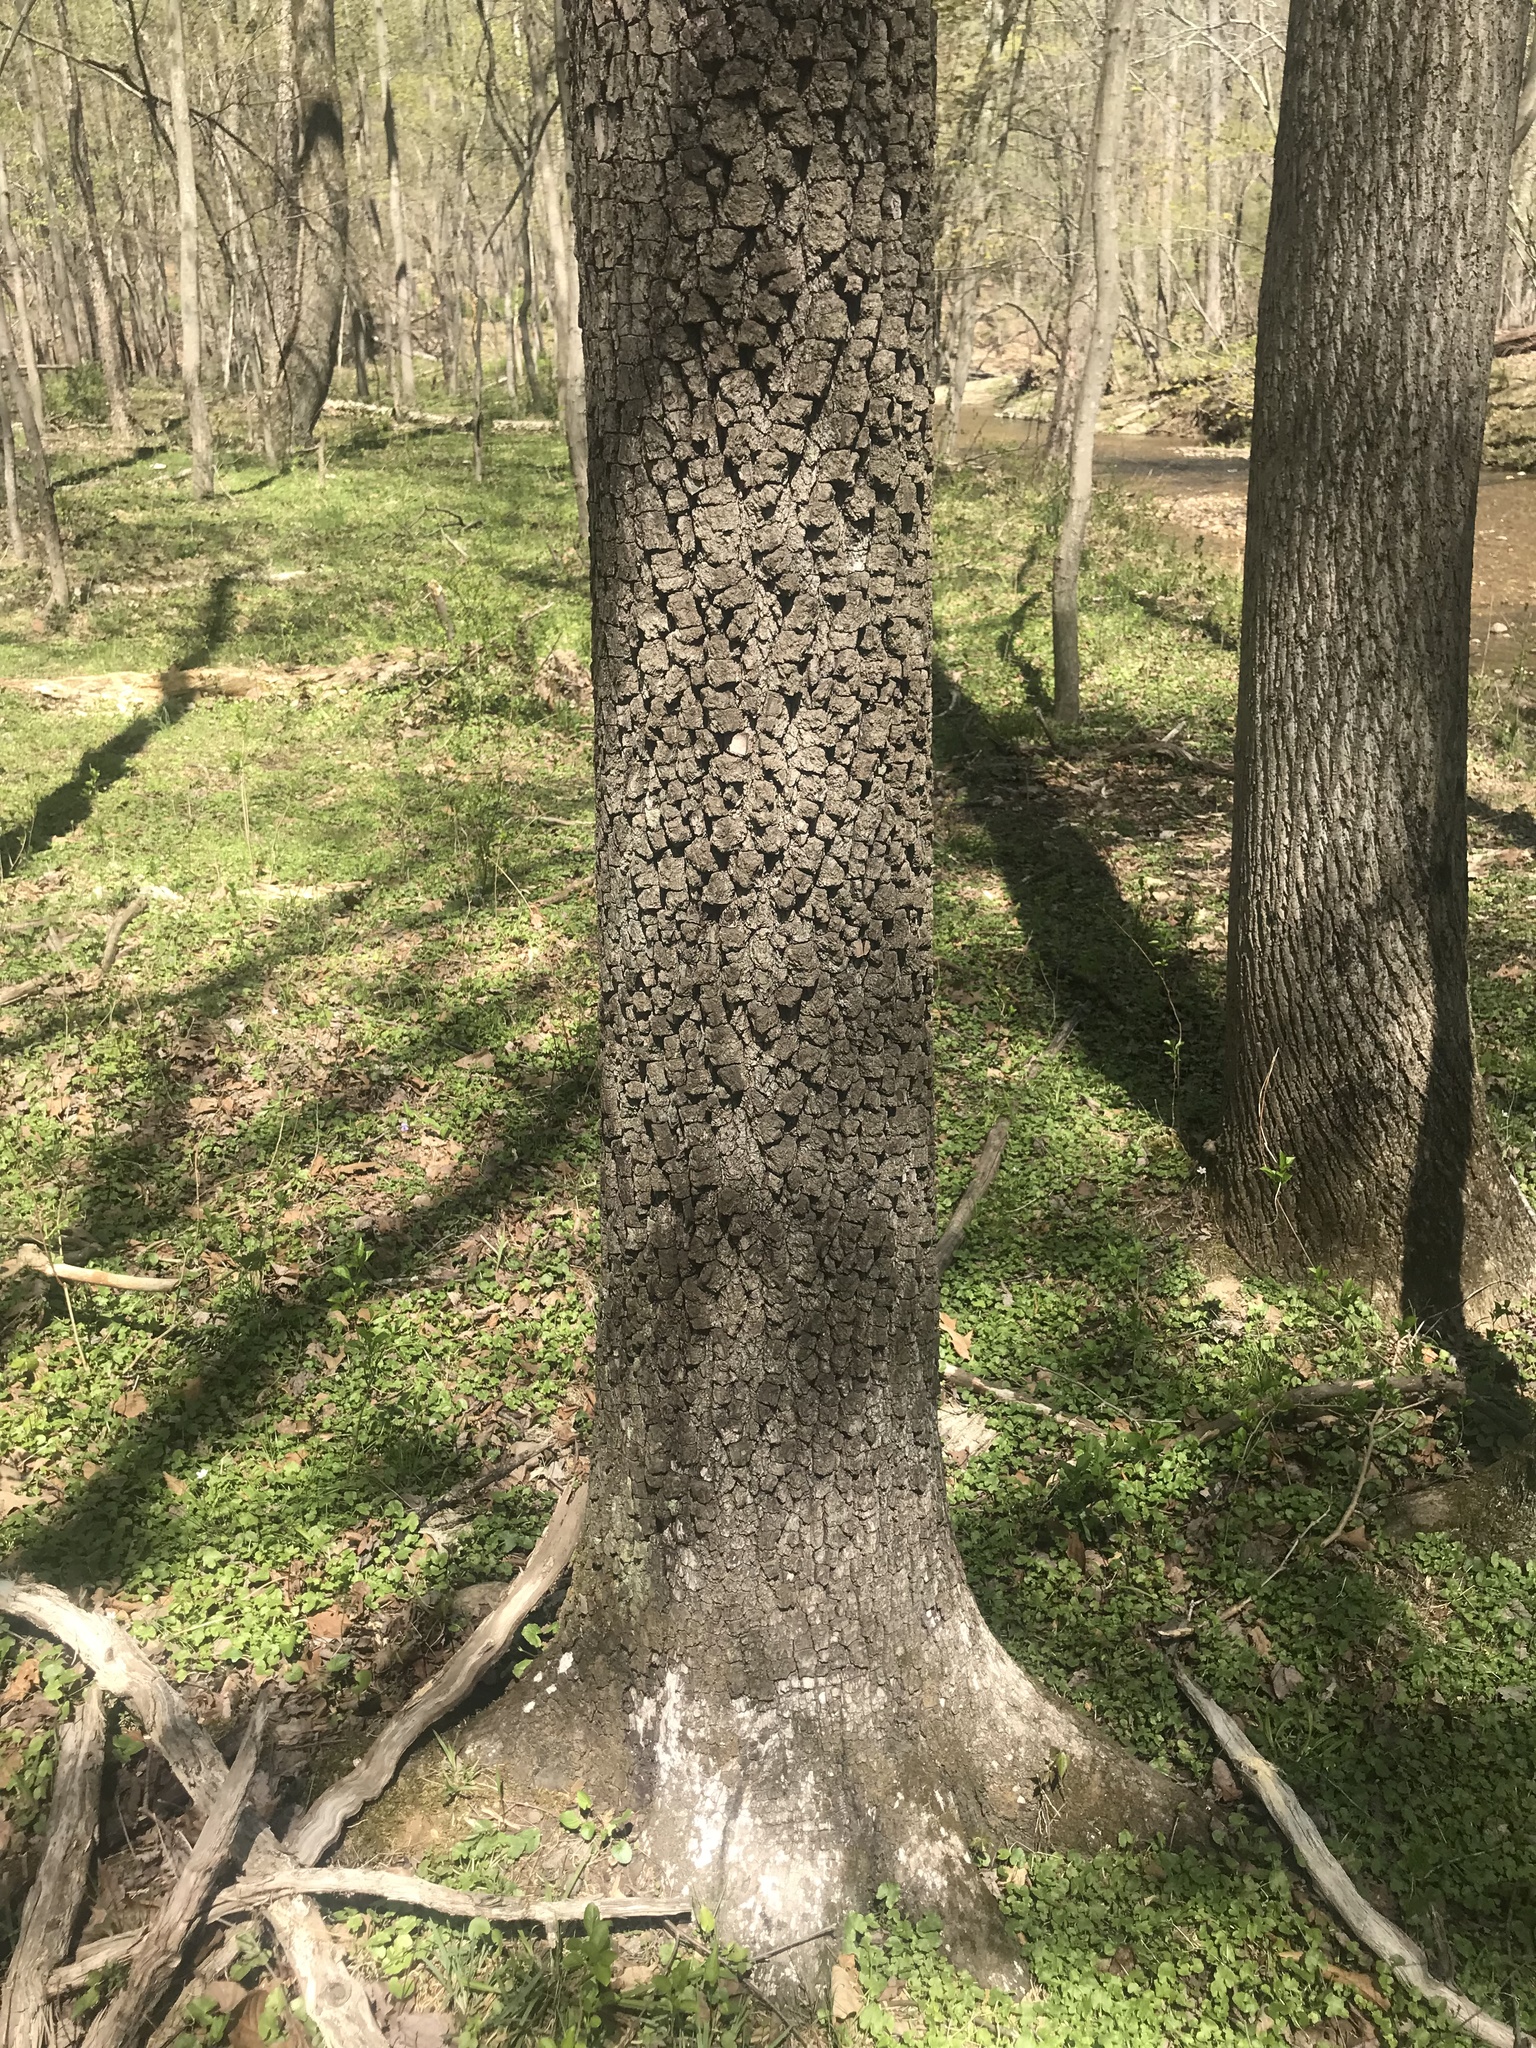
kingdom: Plantae
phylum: Tracheophyta
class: Magnoliopsida
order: Ericales
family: Ebenaceae
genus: Diospyros
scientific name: Diospyros virginiana
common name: Persimmon
